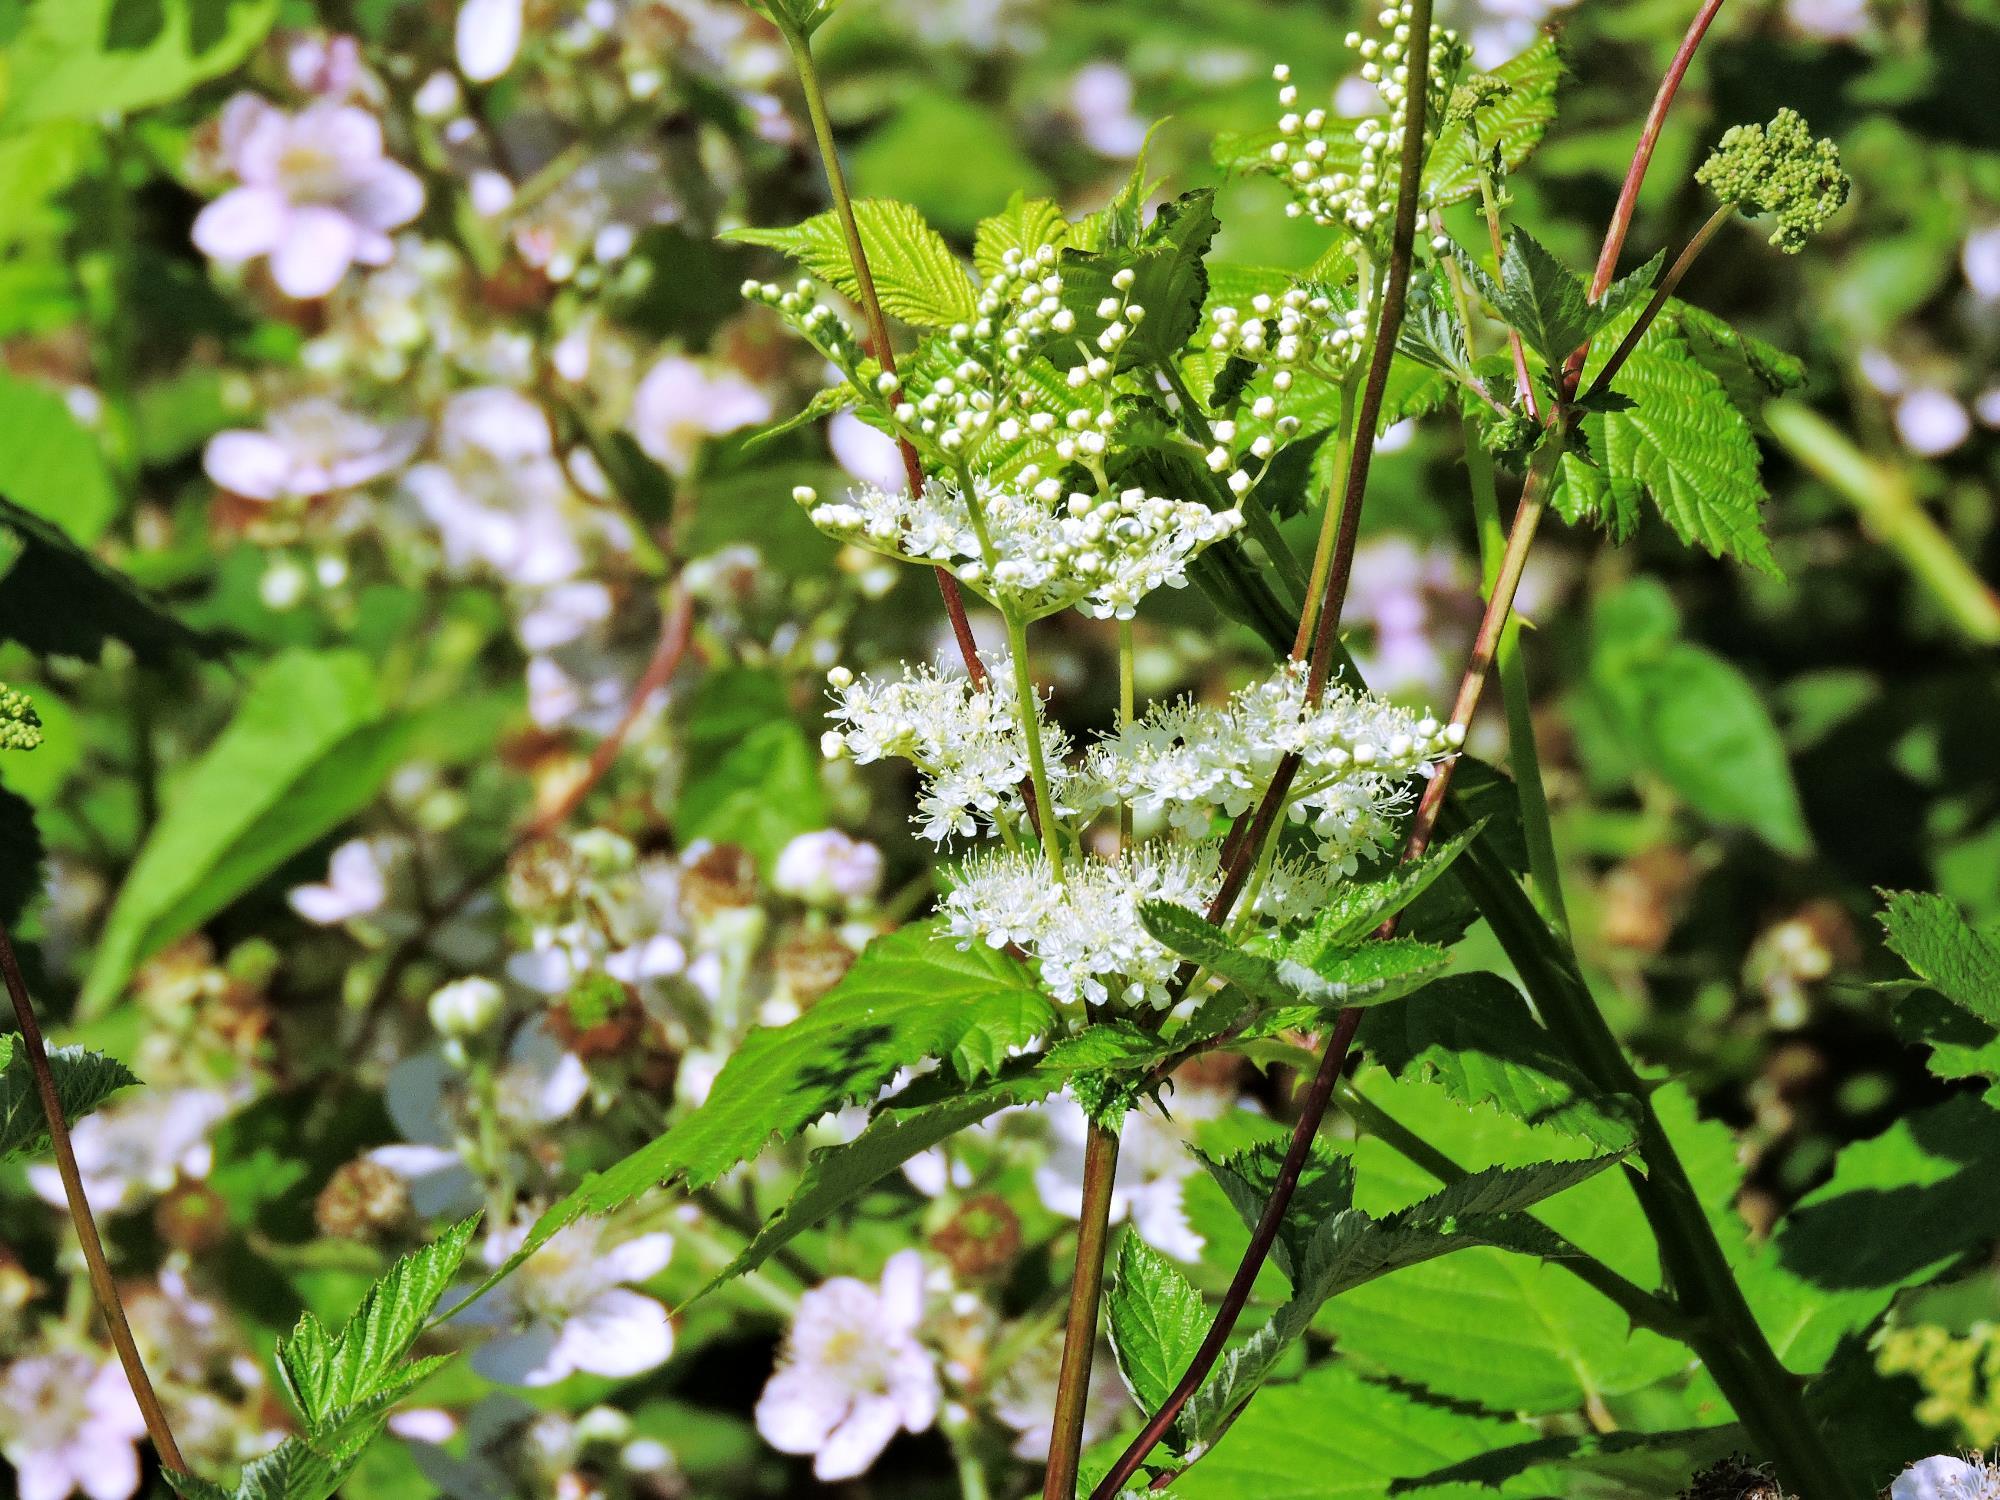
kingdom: Plantae
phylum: Tracheophyta
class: Magnoliopsida
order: Rosales
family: Rosaceae
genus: Filipendula
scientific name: Filipendula ulmaria
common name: Meadowsweet
